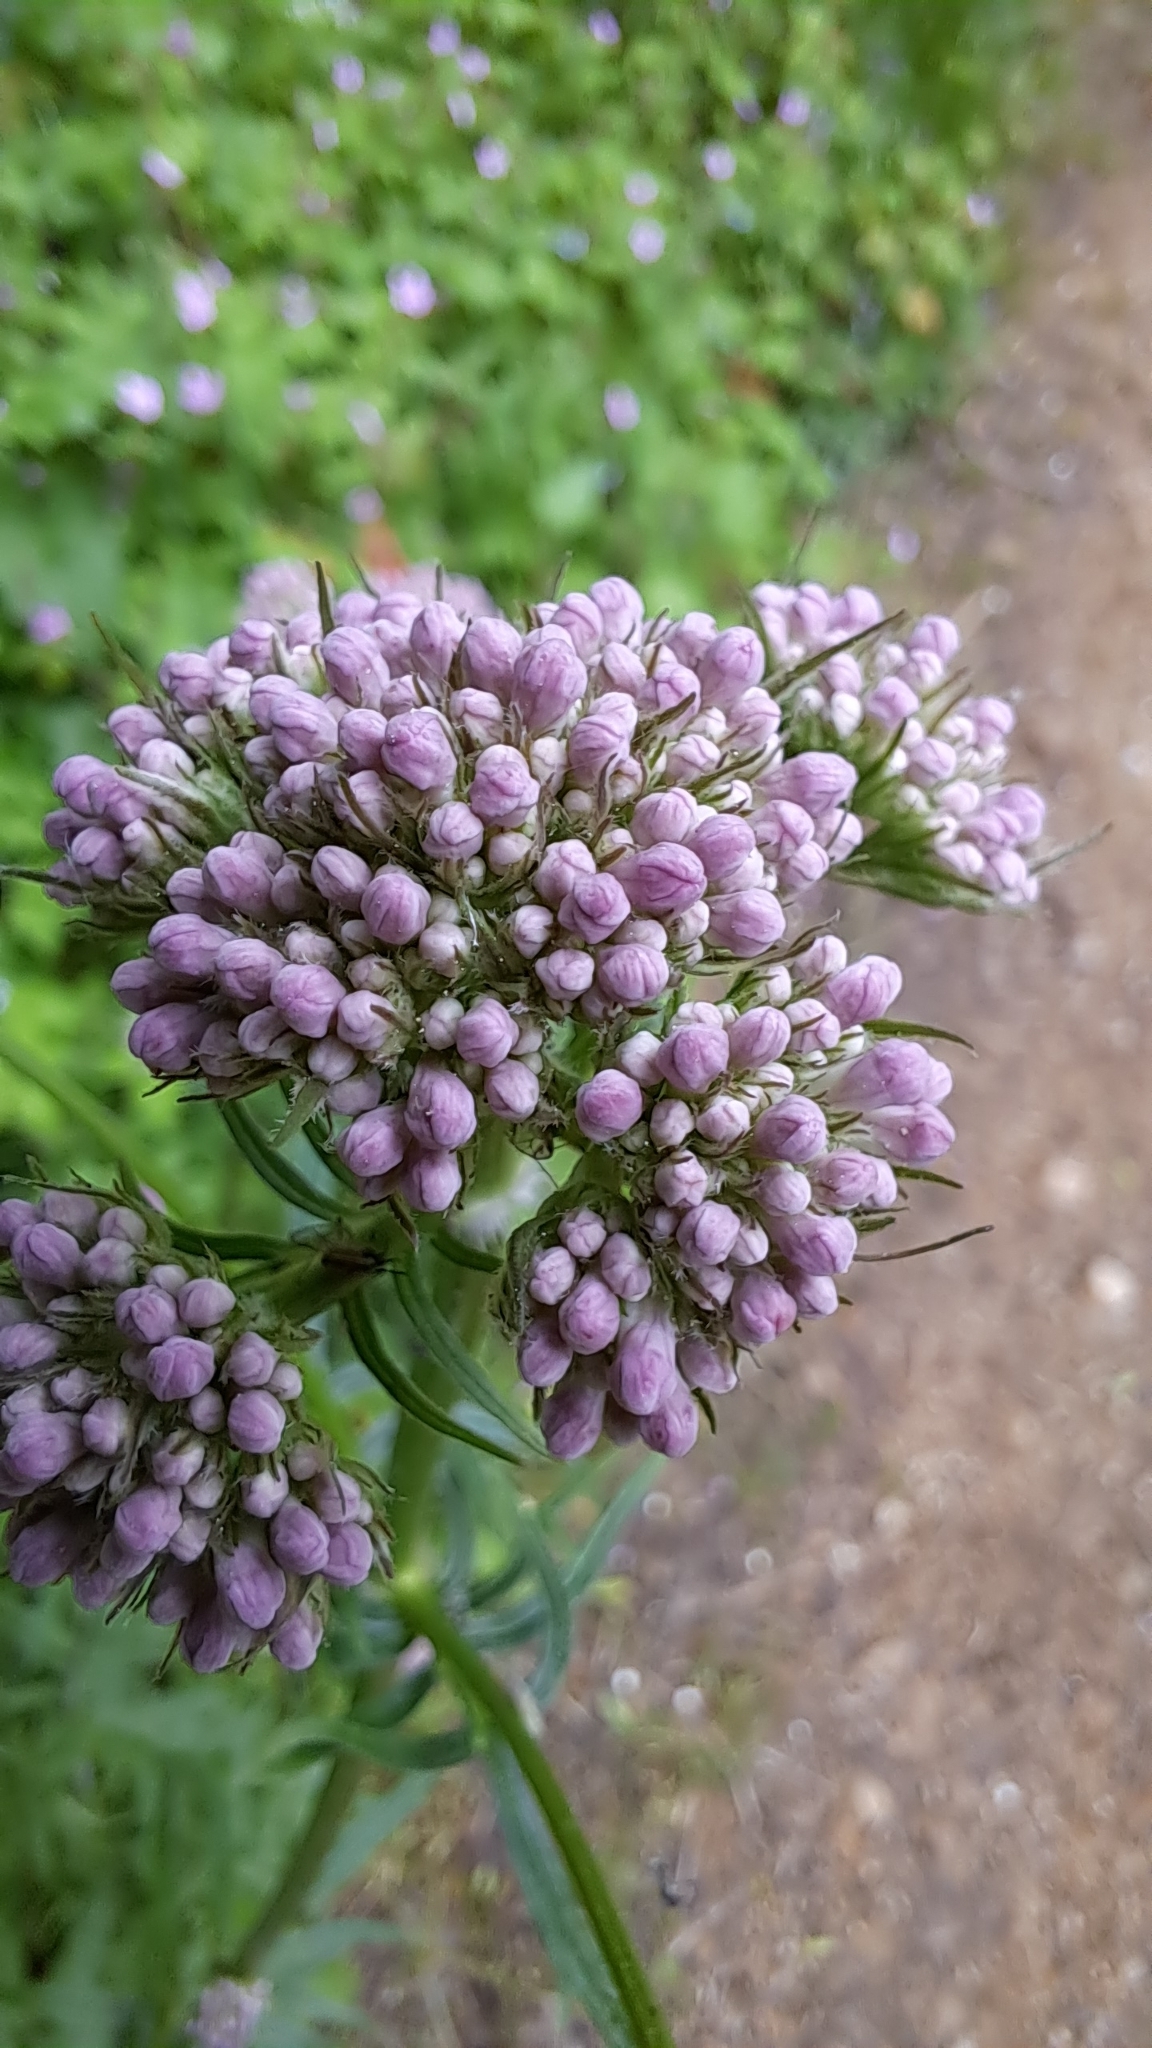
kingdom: Plantae
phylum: Tracheophyta
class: Magnoliopsida
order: Dipsacales
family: Caprifoliaceae
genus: Valeriana
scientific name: Valeriana
